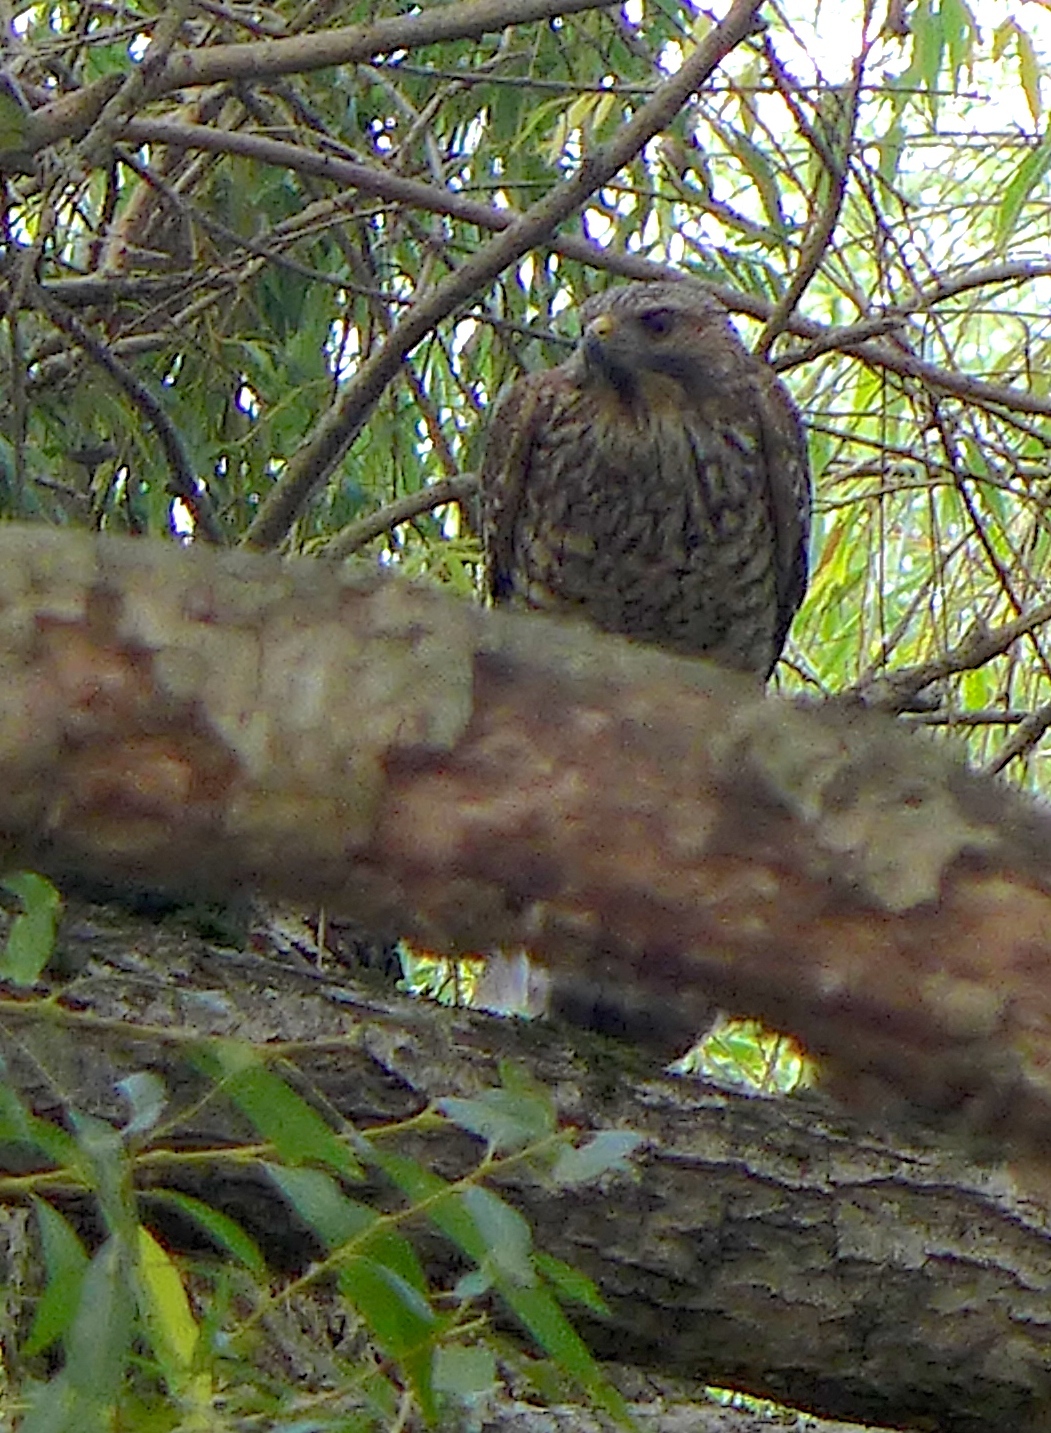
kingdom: Animalia
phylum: Chordata
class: Aves
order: Accipitriformes
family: Accipitridae
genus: Buteo
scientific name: Buteo lineatus
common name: Red-shouldered hawk
